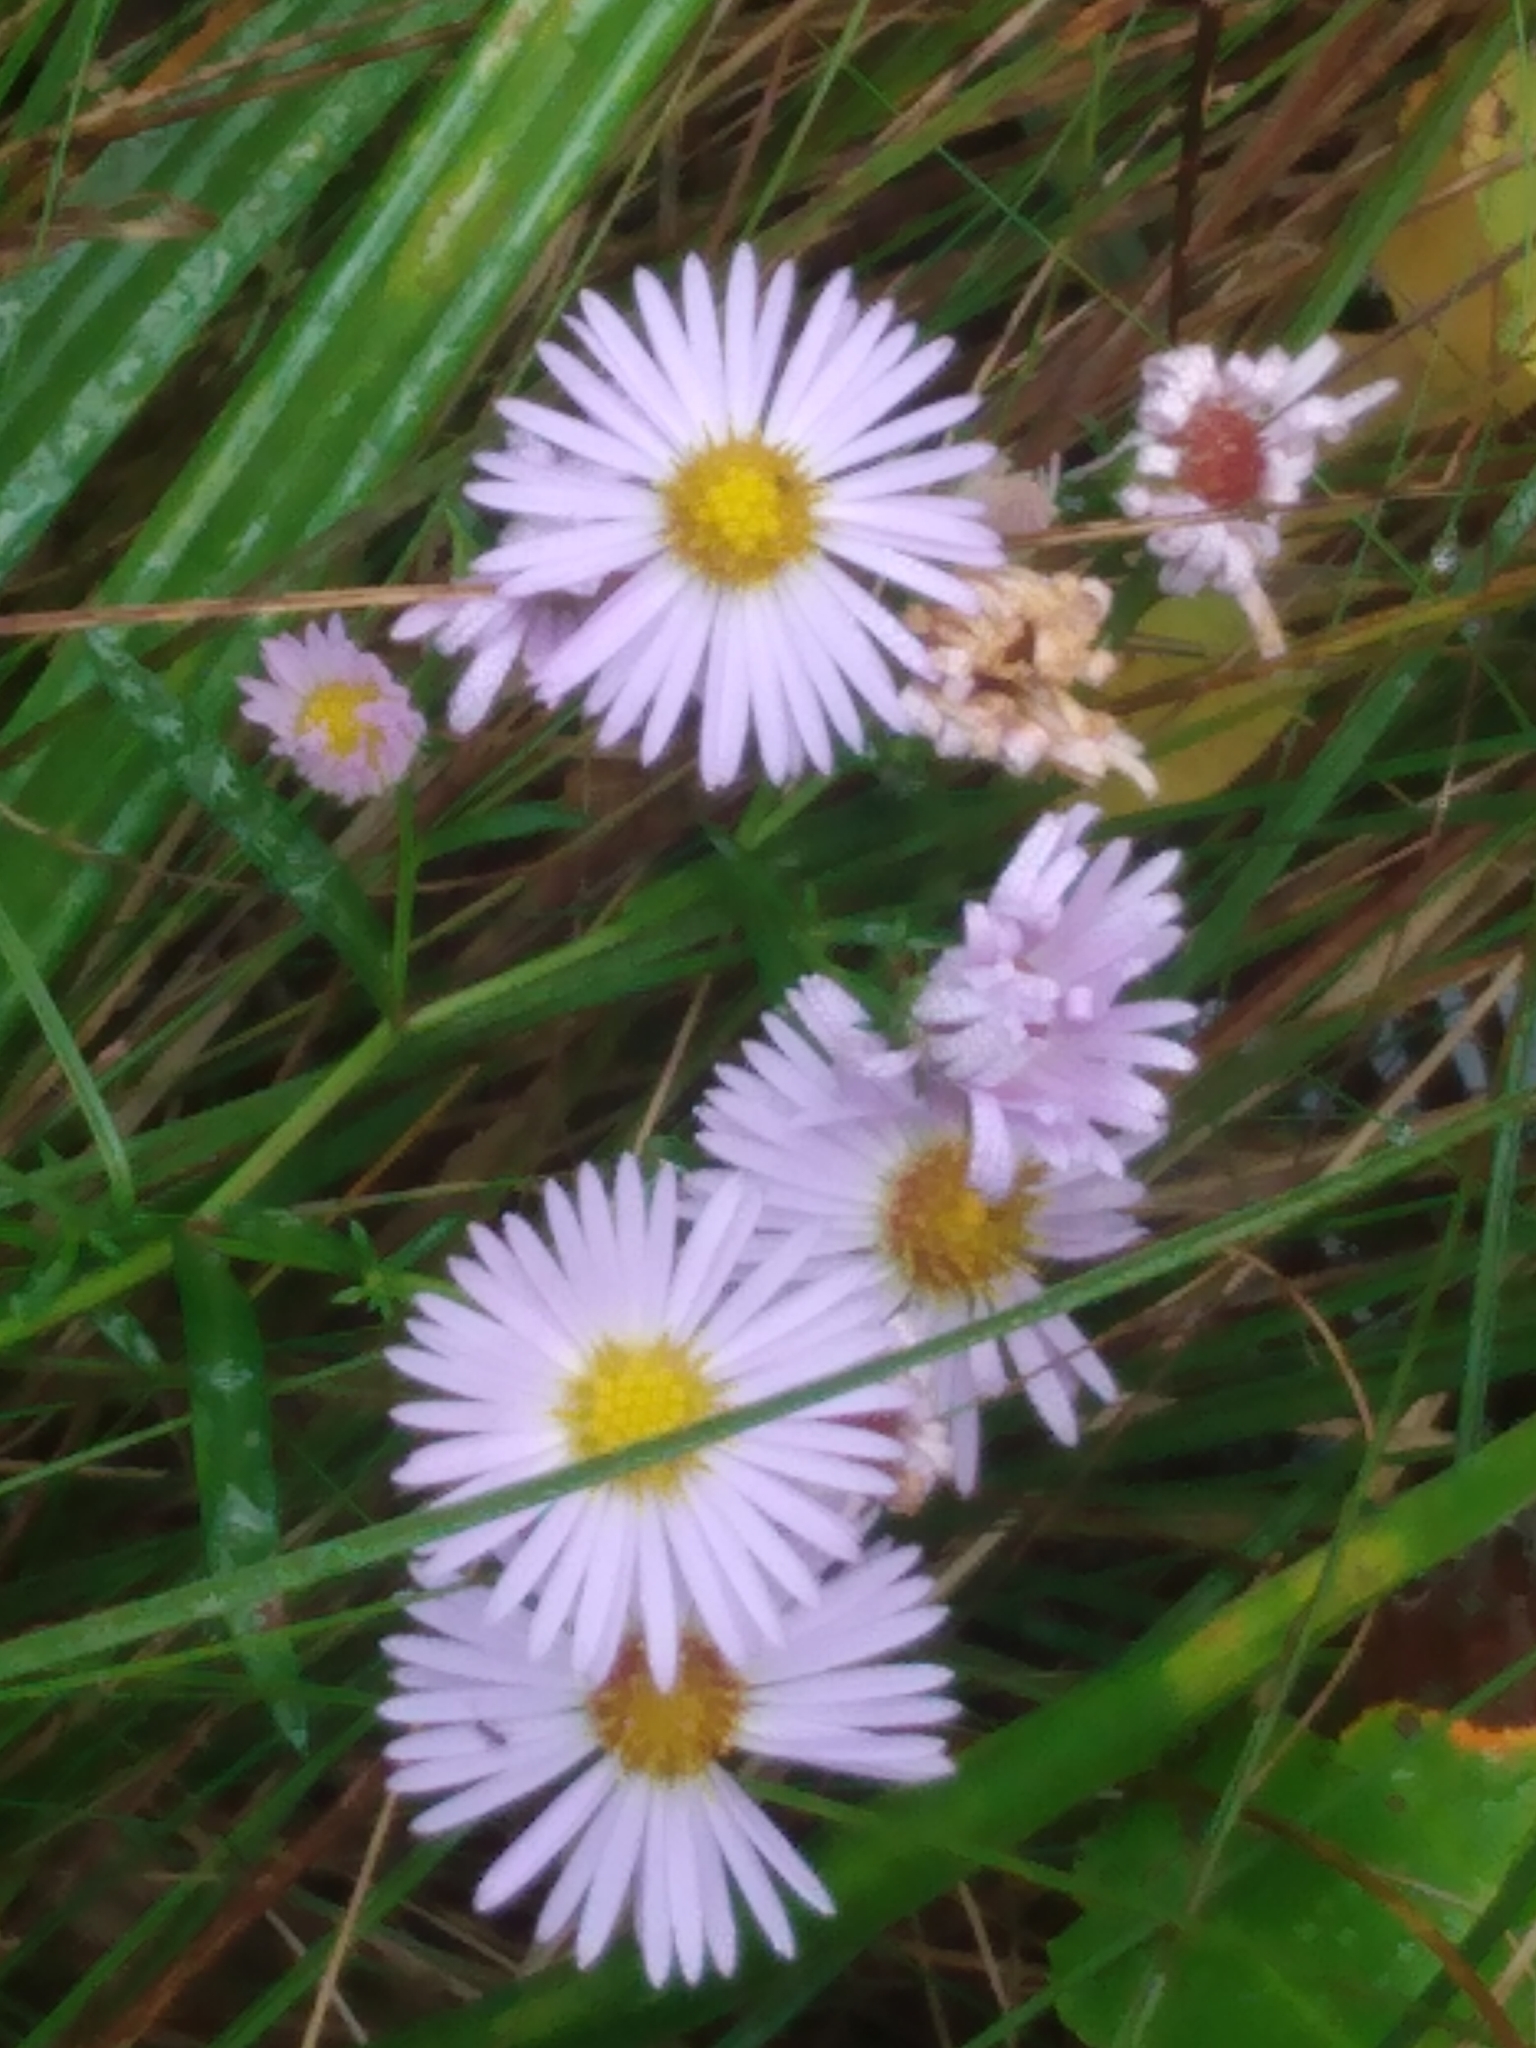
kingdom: Plantae
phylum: Tracheophyta
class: Magnoliopsida
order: Asterales
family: Asteraceae
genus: Symphyotrichum
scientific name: Symphyotrichum novi-belgii
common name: Michaelmas daisy
